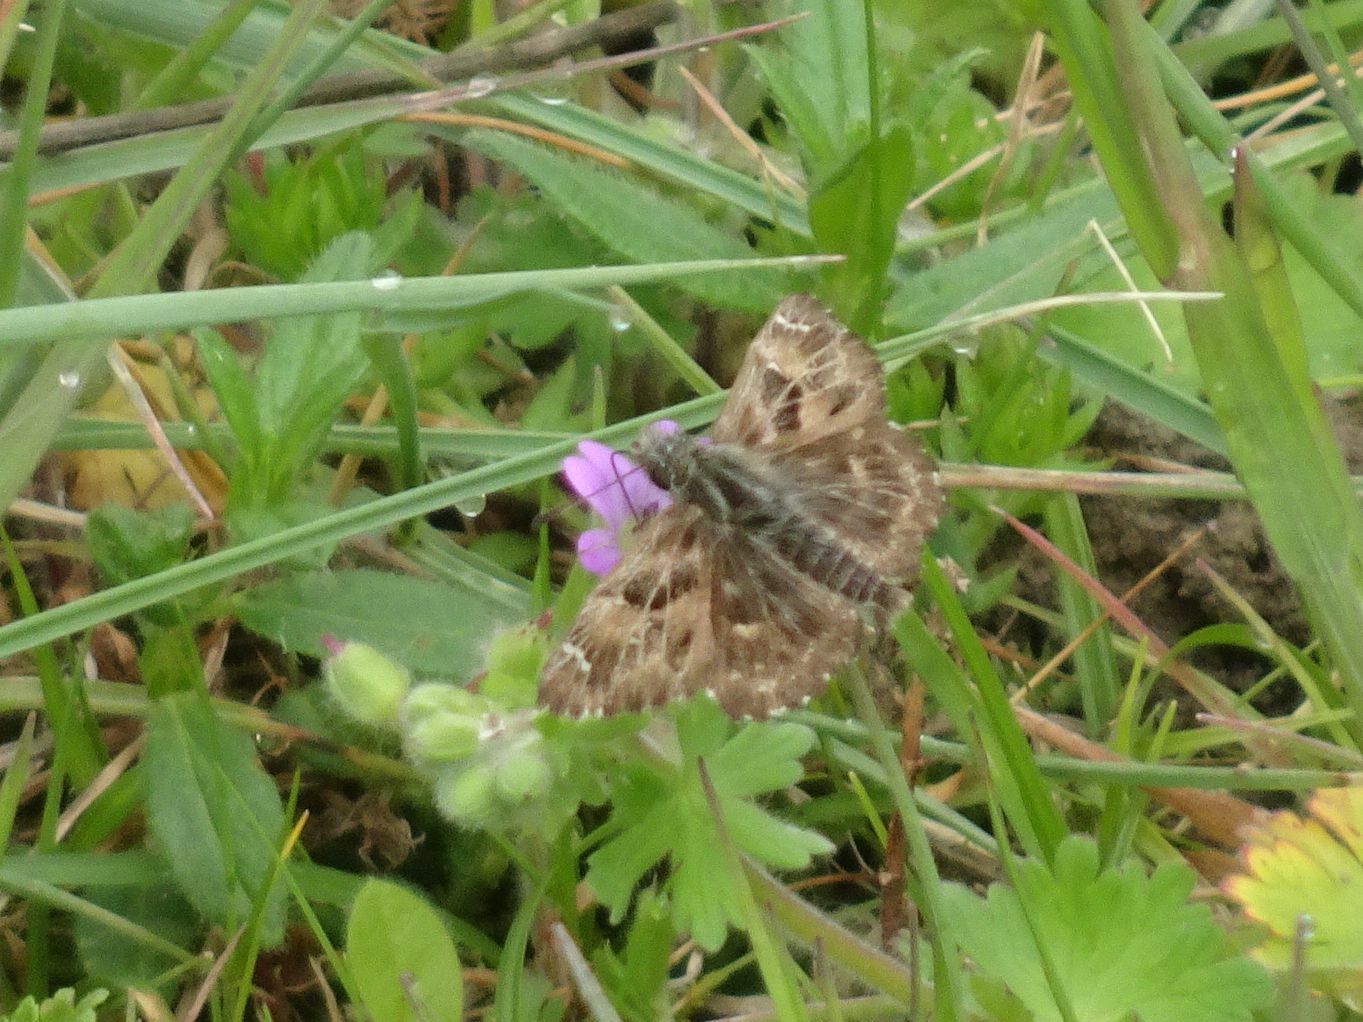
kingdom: Animalia
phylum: Arthropoda
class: Insecta
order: Lepidoptera
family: Hesperiidae
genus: Carcharodus
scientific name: Carcharodus alceae
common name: Mallow skipper
